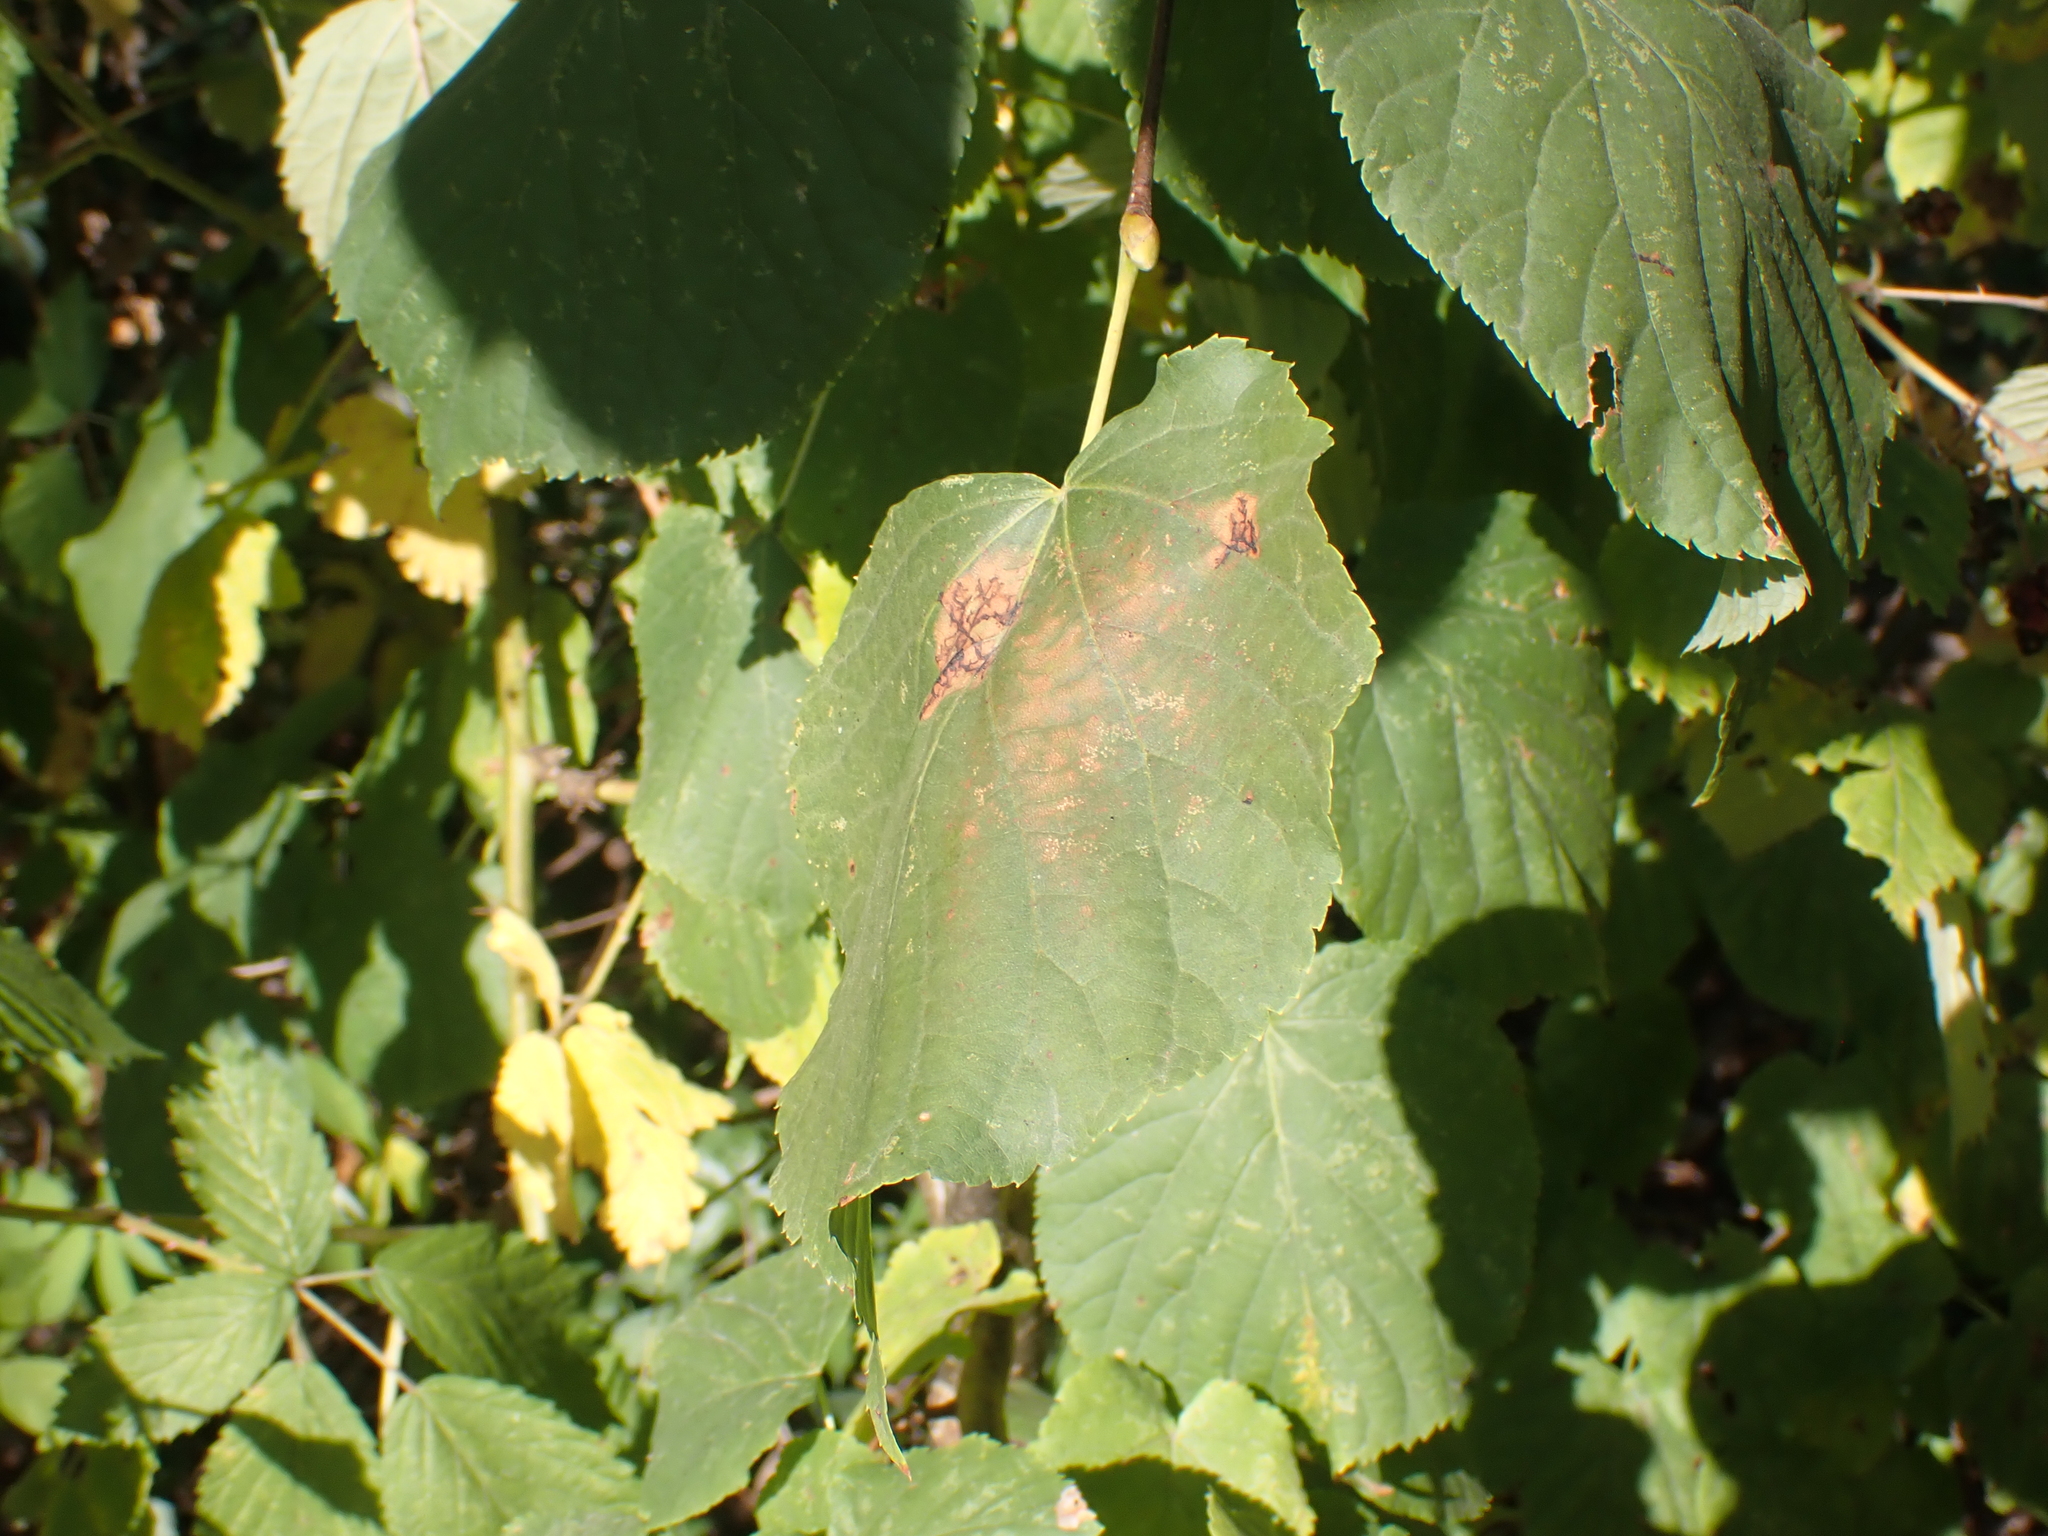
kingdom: Fungi
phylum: Ascomycota
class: Dothideomycetes
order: Pleosporales
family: Didymosphaeriaceae
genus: Paraconiothyrium
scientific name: Paraconiothyrium tiliae
